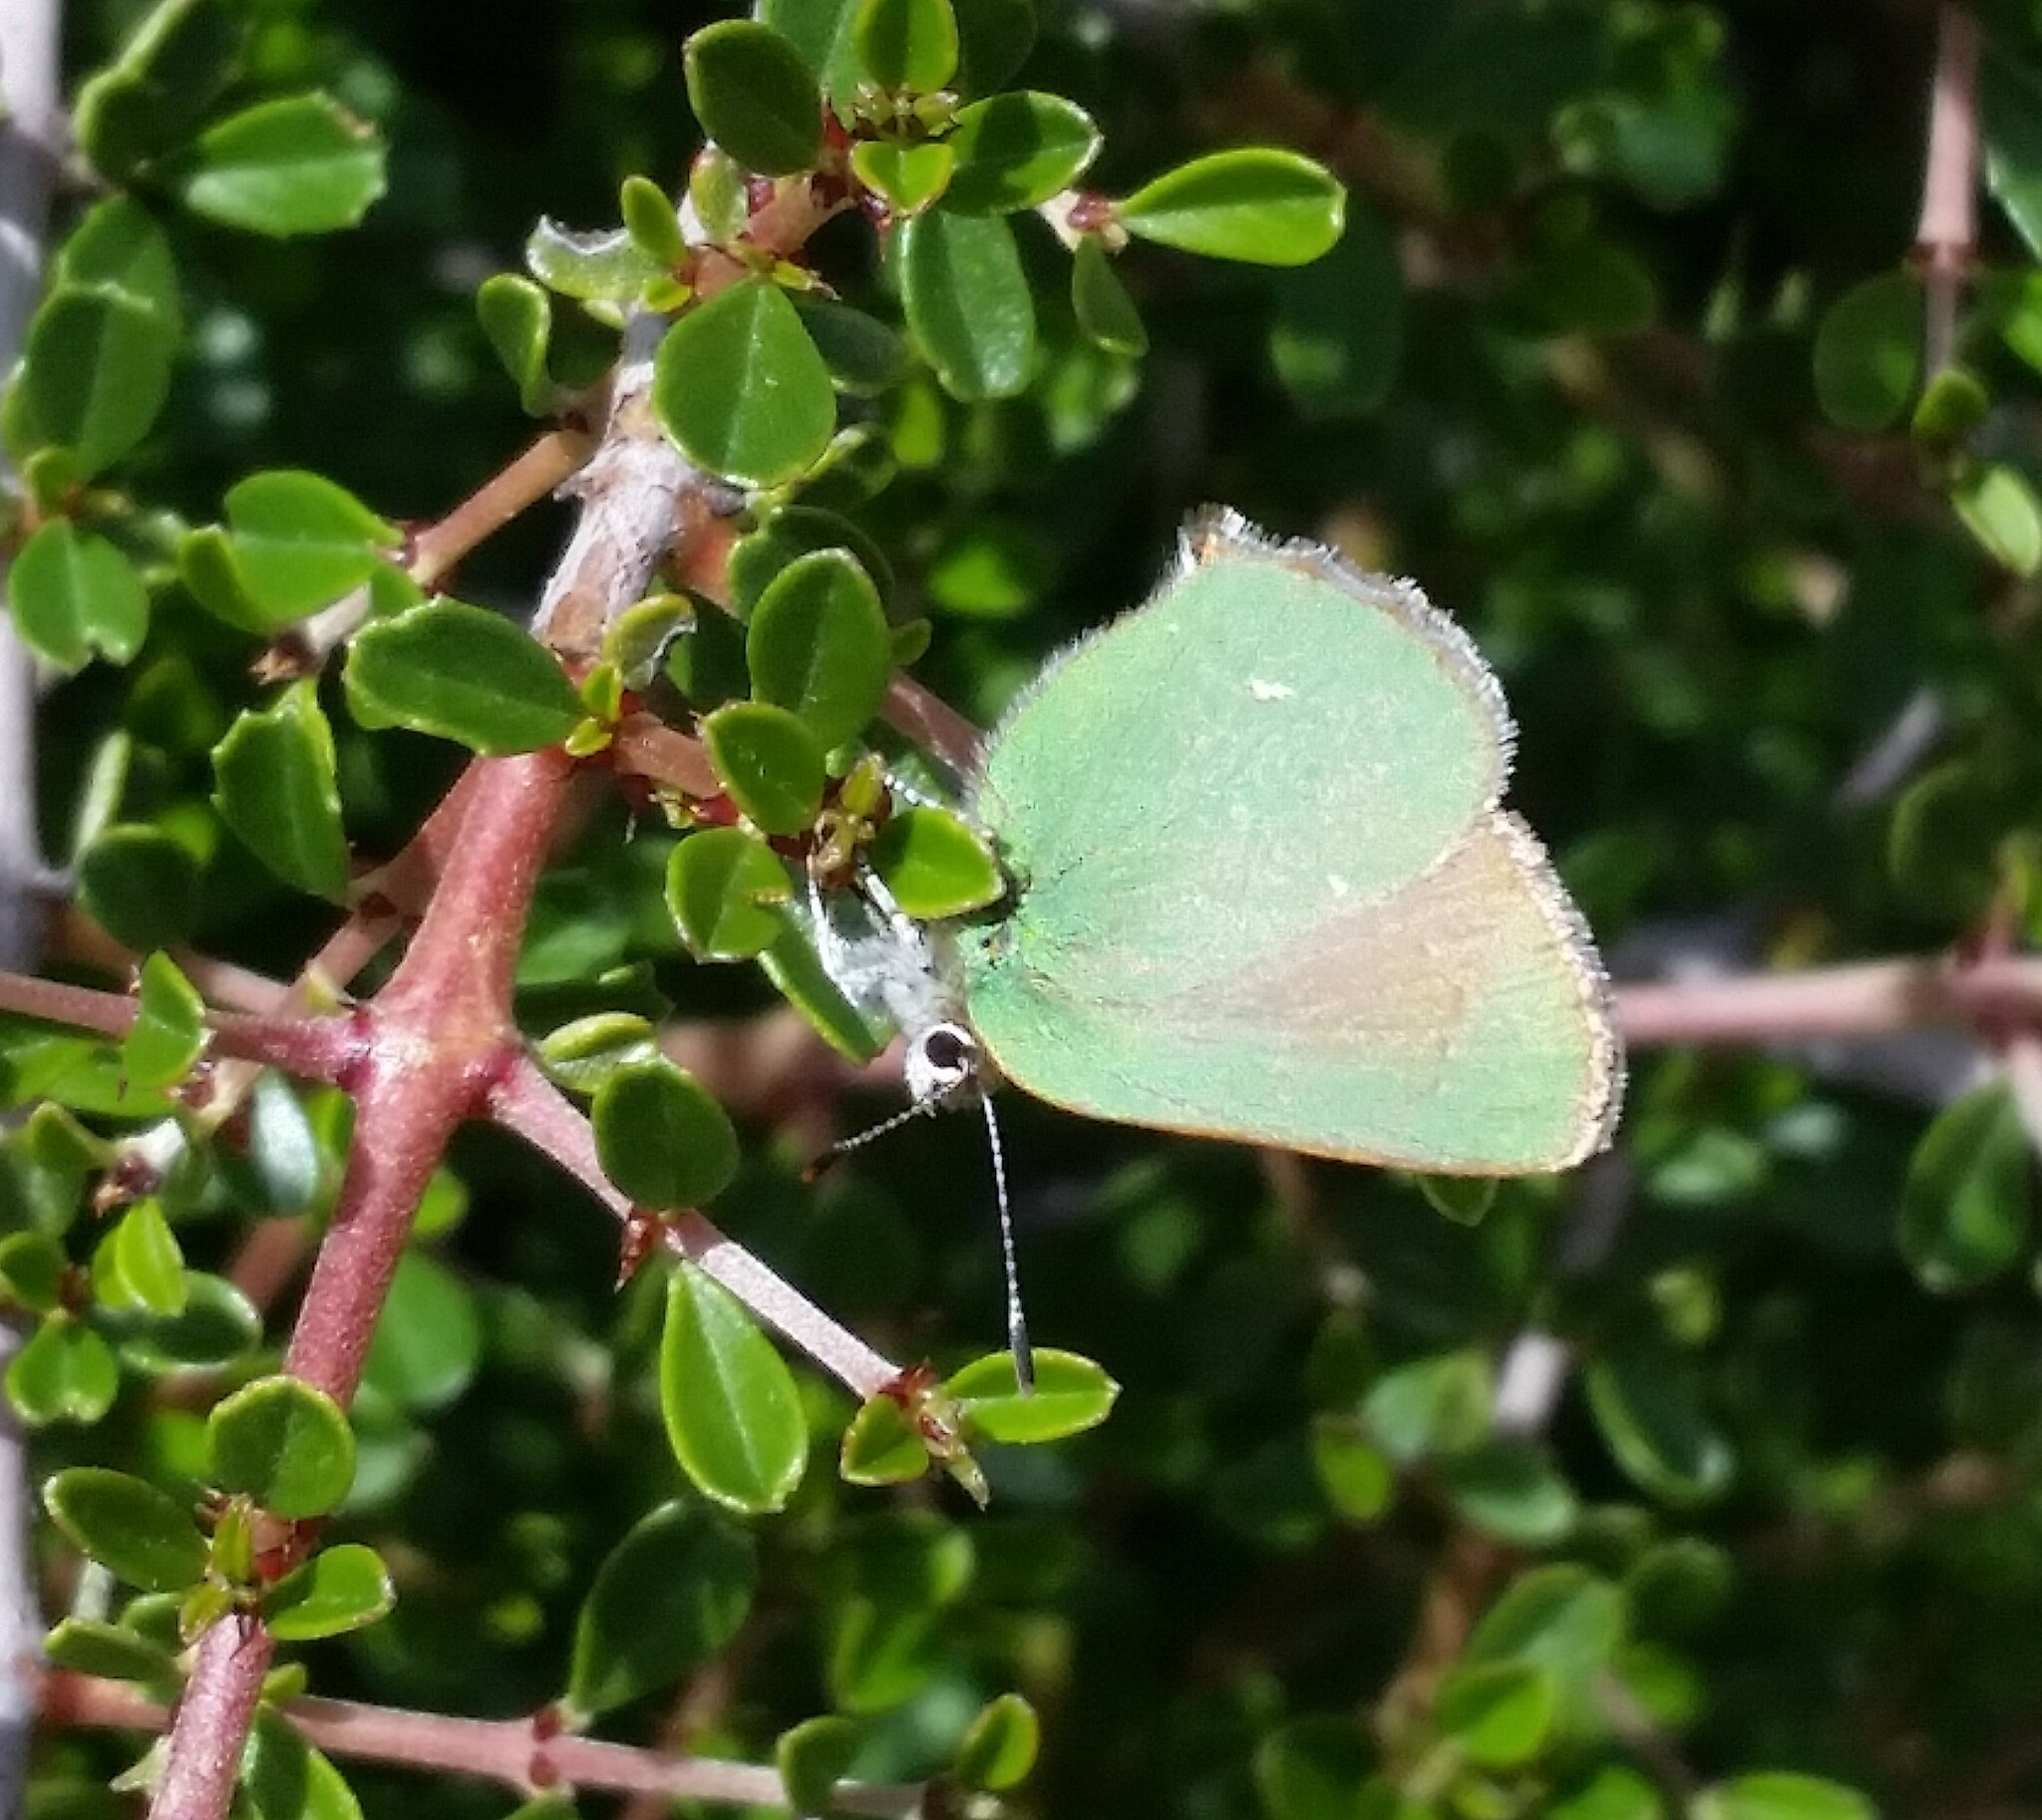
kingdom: Animalia
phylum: Arthropoda
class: Insecta
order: Lepidoptera
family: Lycaenidae
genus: Callophrys
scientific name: Callophrys dumetorum
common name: Bramble hairstreak
